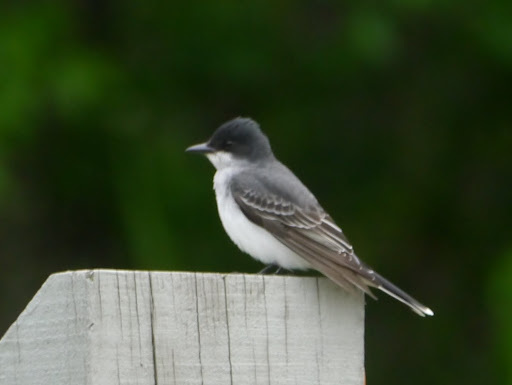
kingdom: Animalia
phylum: Chordata
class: Aves
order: Passeriformes
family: Tyrannidae
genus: Tyrannus
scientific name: Tyrannus tyrannus
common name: Eastern kingbird
